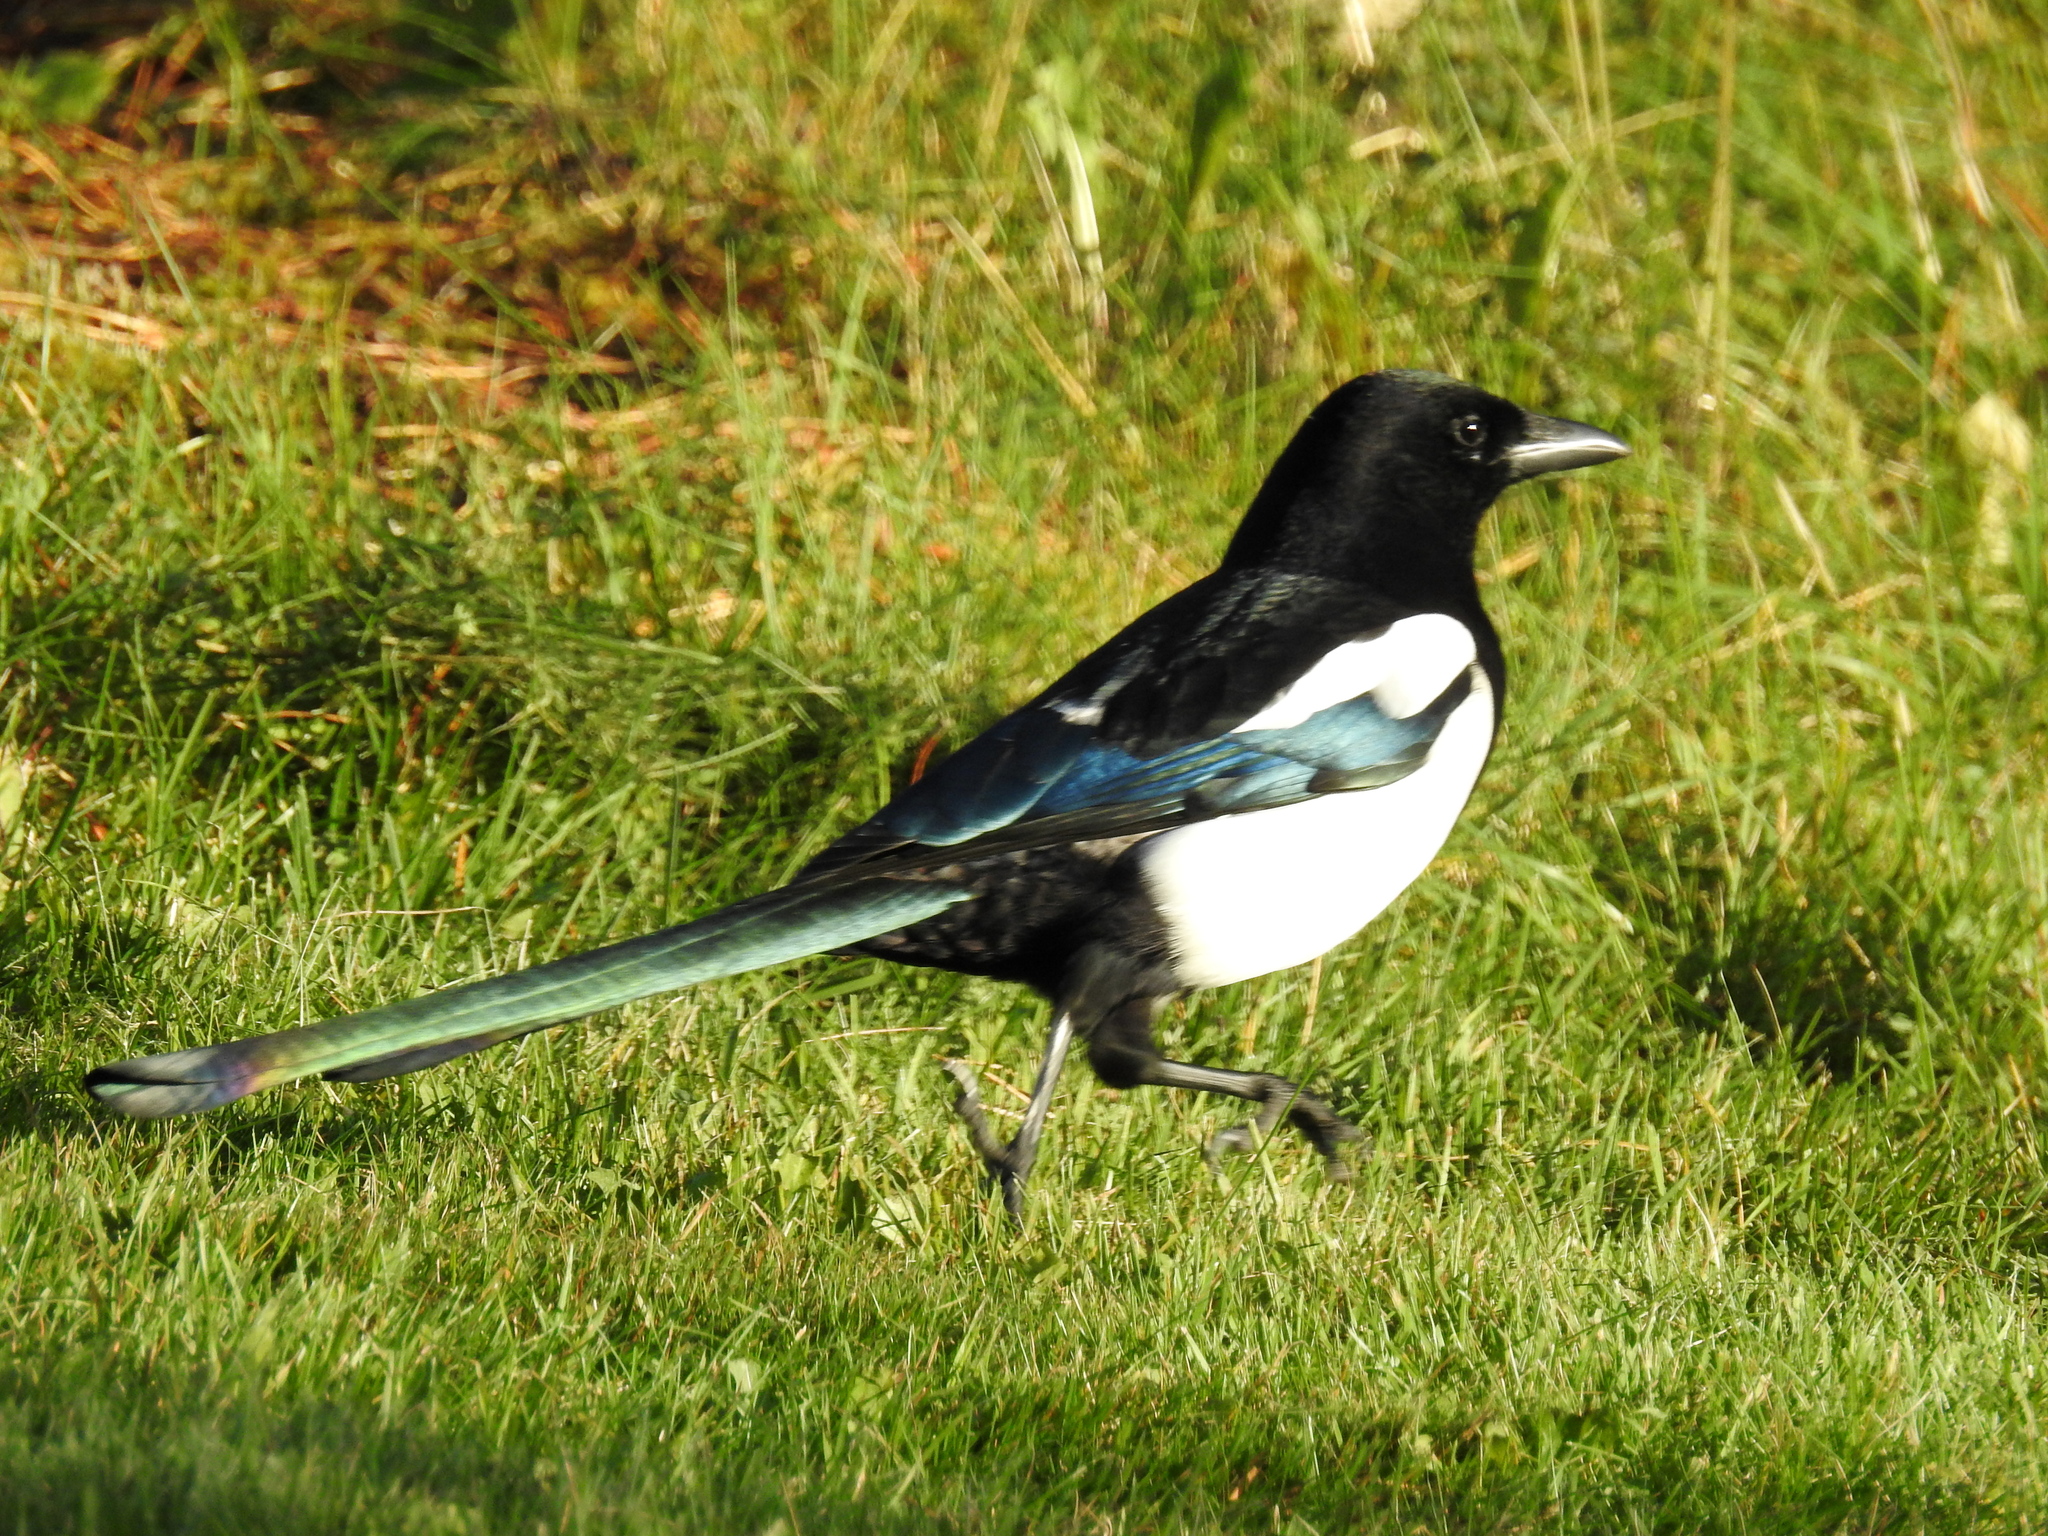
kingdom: Animalia
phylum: Chordata
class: Aves
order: Passeriformes
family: Corvidae
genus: Pica
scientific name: Pica pica
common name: Eurasian magpie
